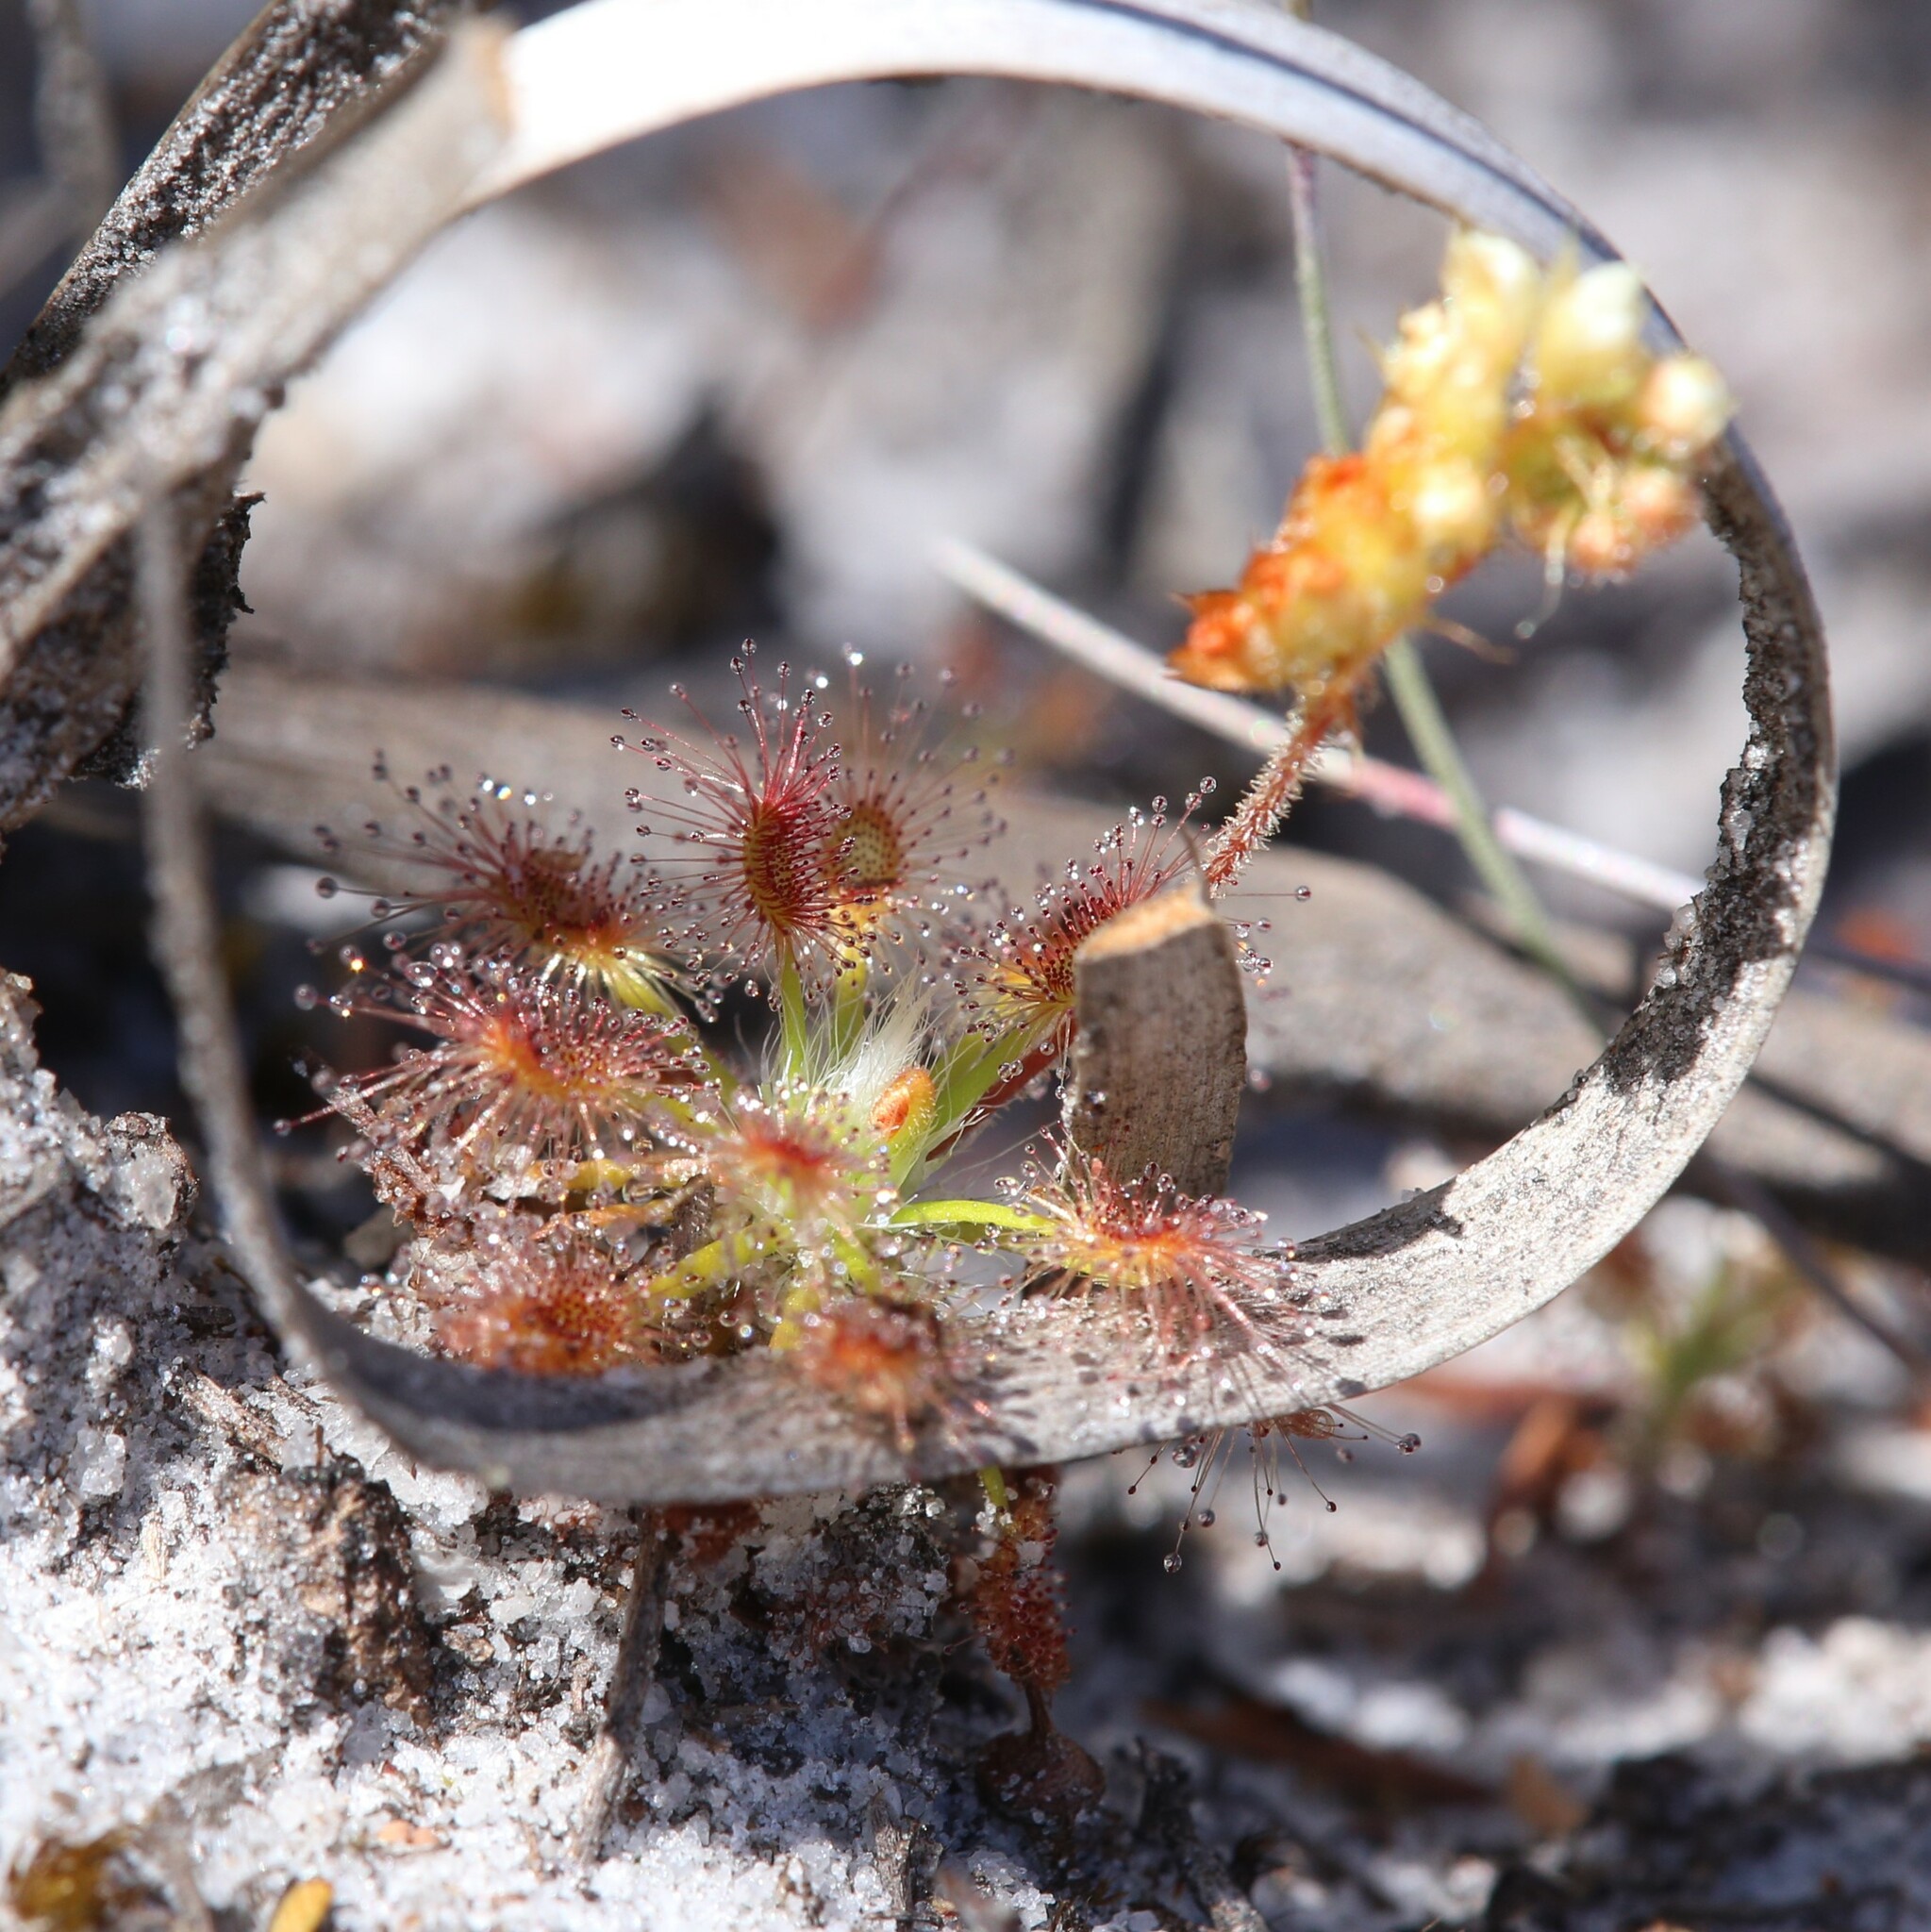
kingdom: Plantae
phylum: Tracheophyta
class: Magnoliopsida
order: Caryophyllales
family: Droseraceae
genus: Drosera
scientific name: Drosera paleacea
